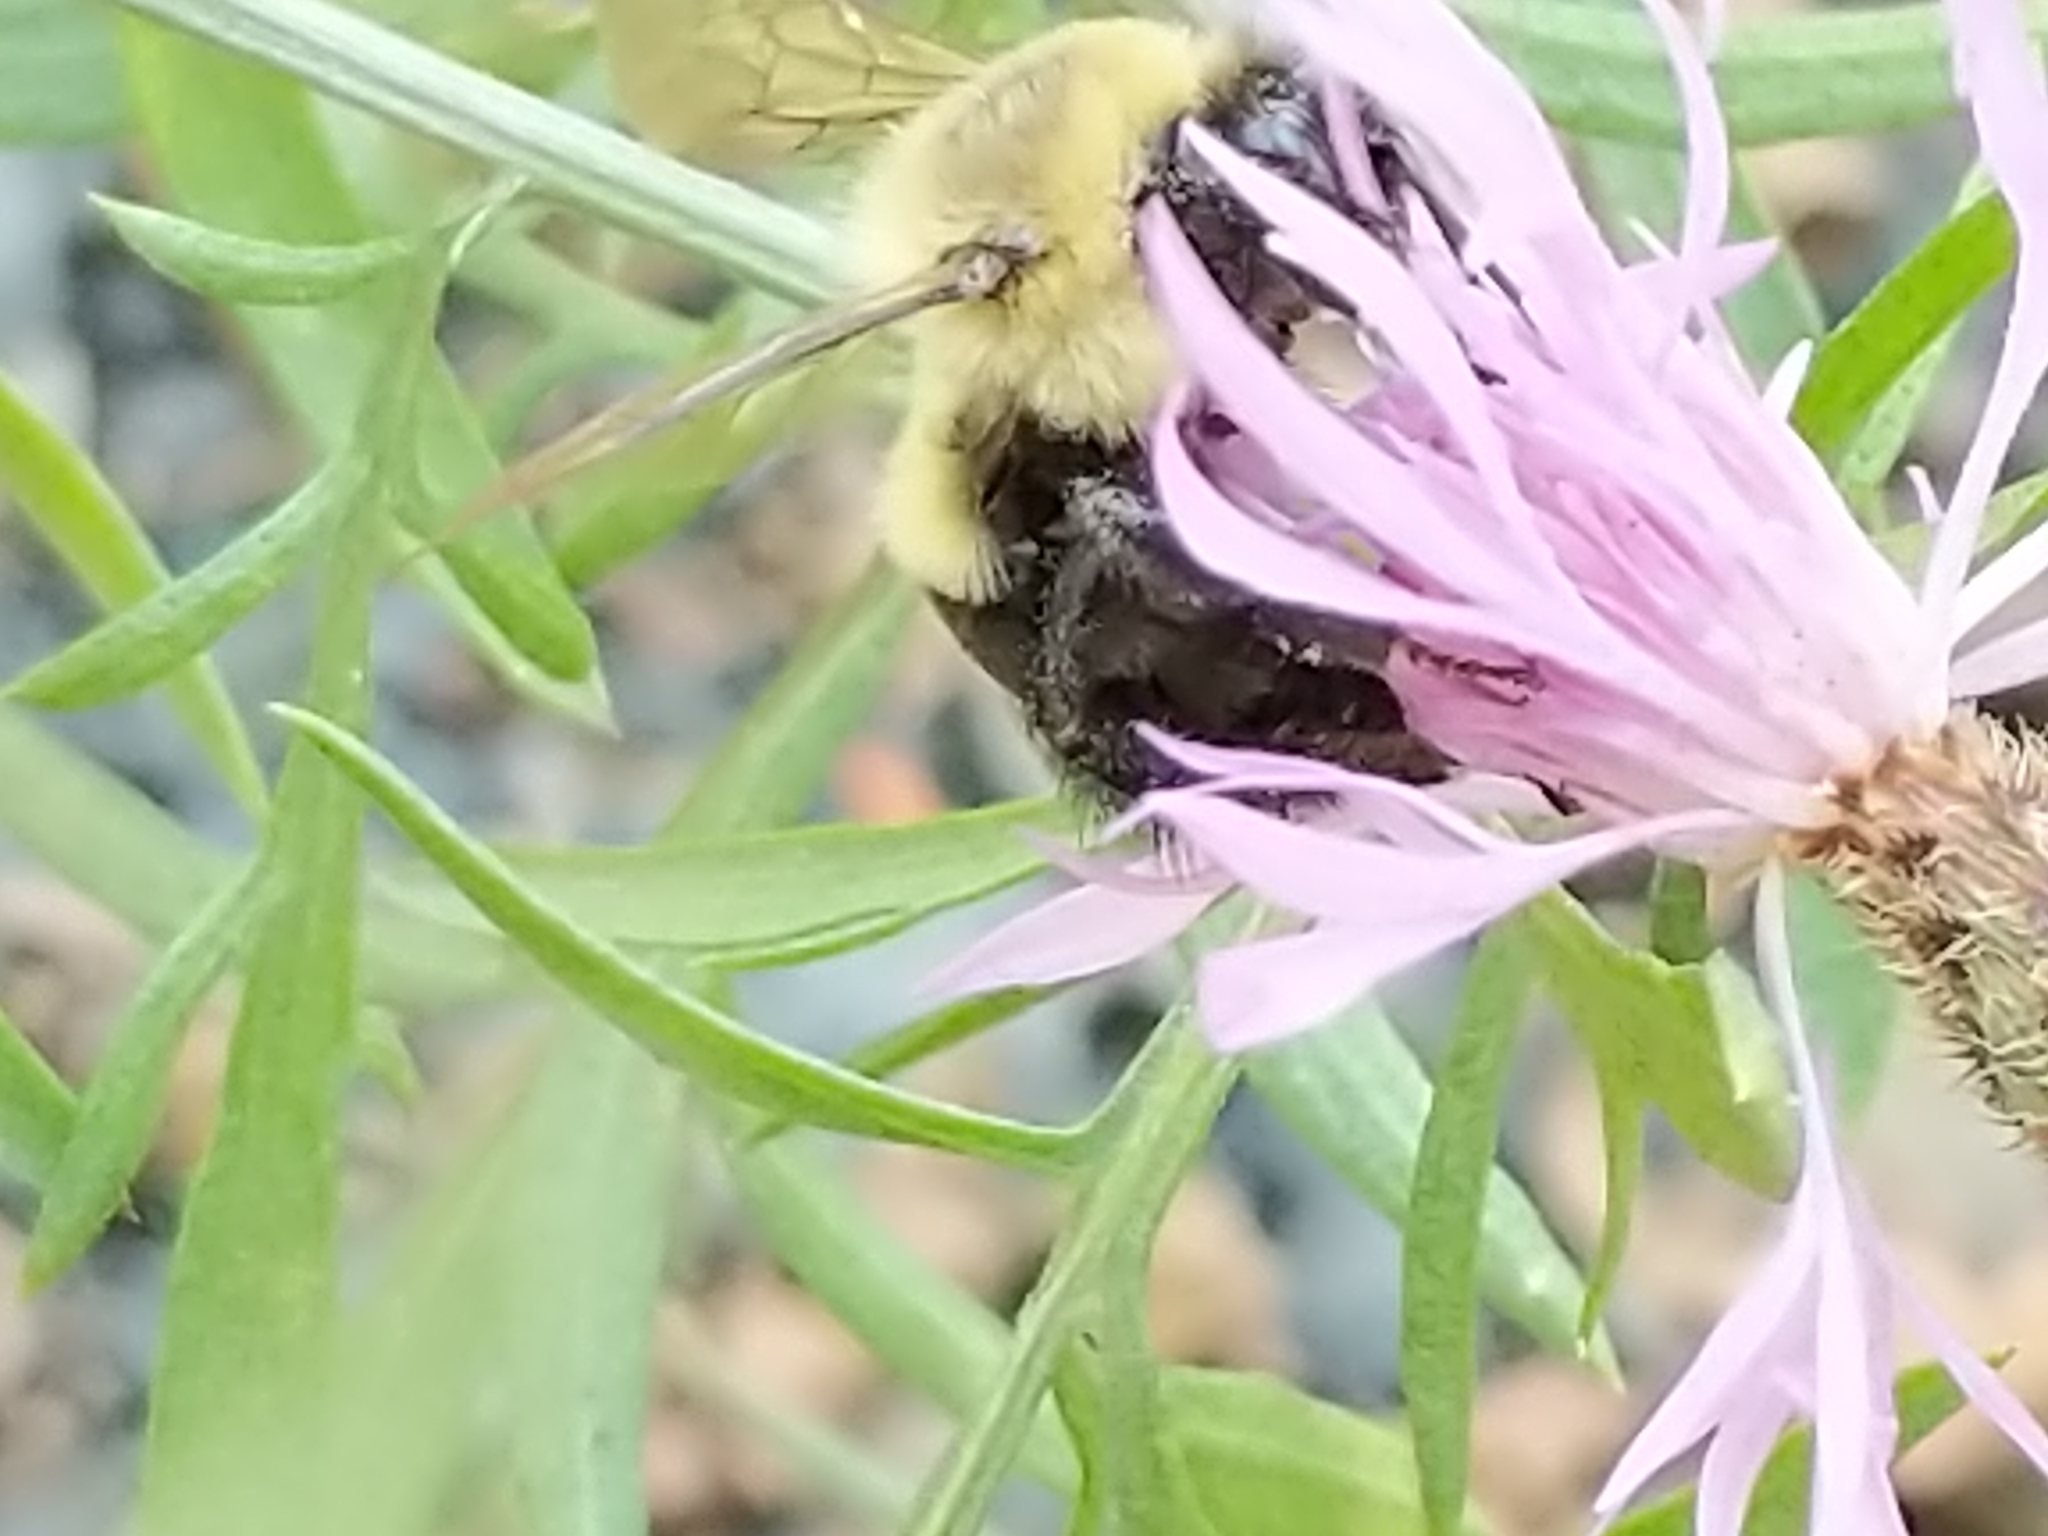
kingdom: Animalia
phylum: Arthropoda
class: Insecta
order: Hymenoptera
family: Apidae
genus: Bombus
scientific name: Bombus impatiens
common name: Common eastern bumble bee
